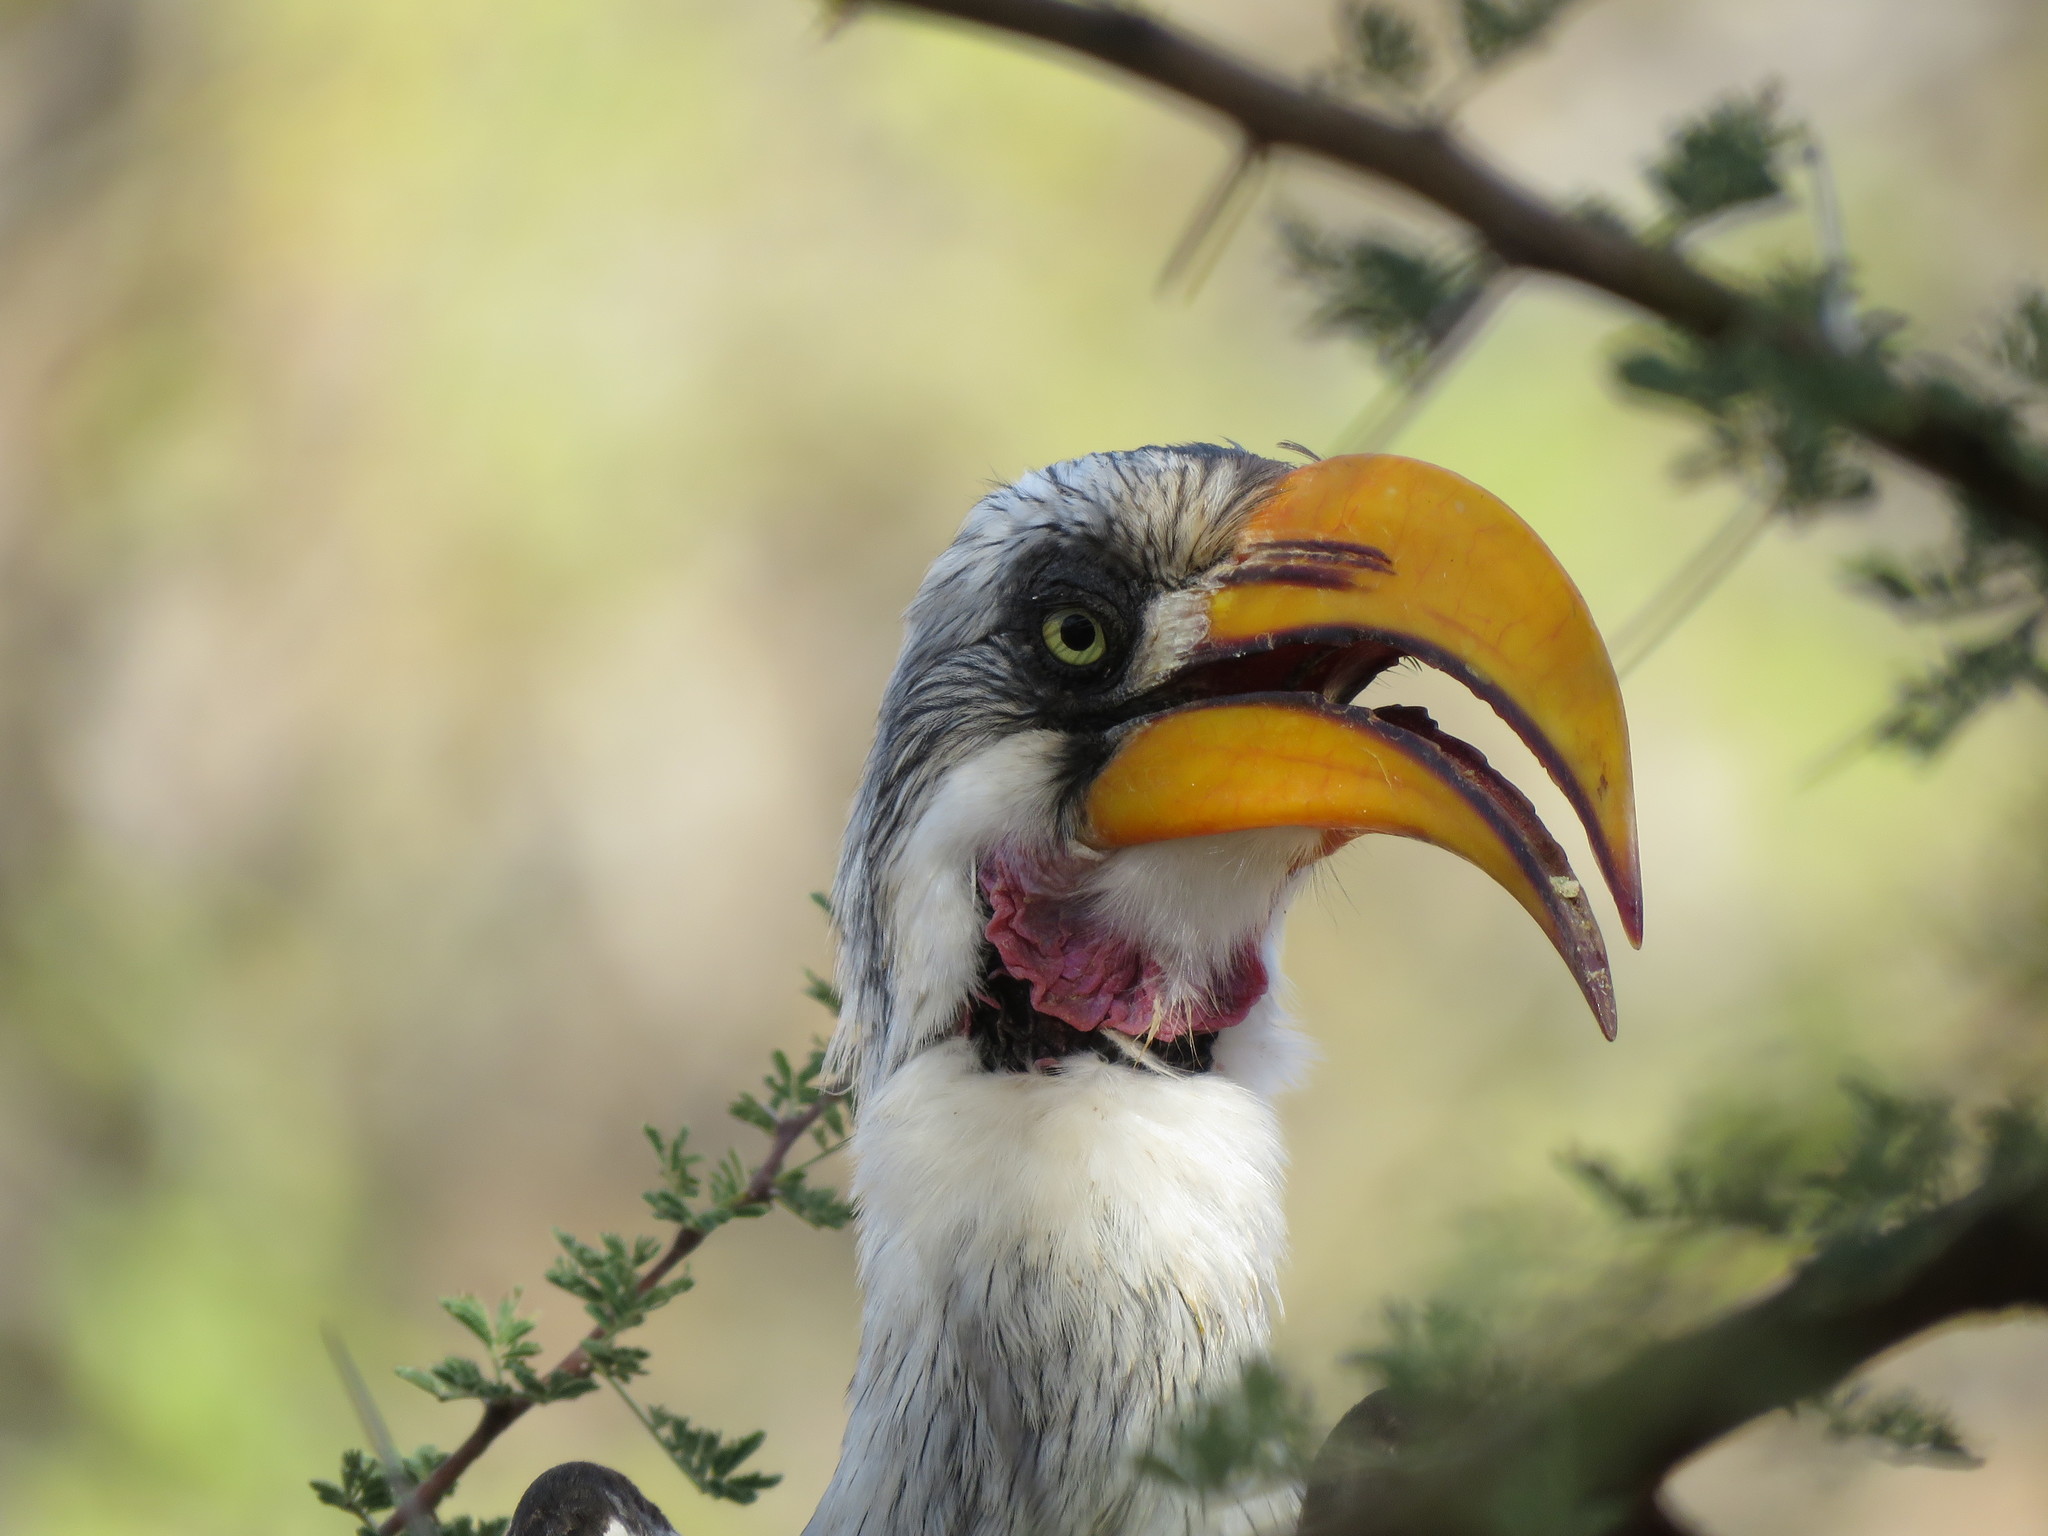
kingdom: Animalia
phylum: Chordata
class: Aves
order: Bucerotiformes
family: Bucerotidae
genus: Tockus
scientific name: Tockus flavirostris
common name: Eastern yellow-billed hornbill
